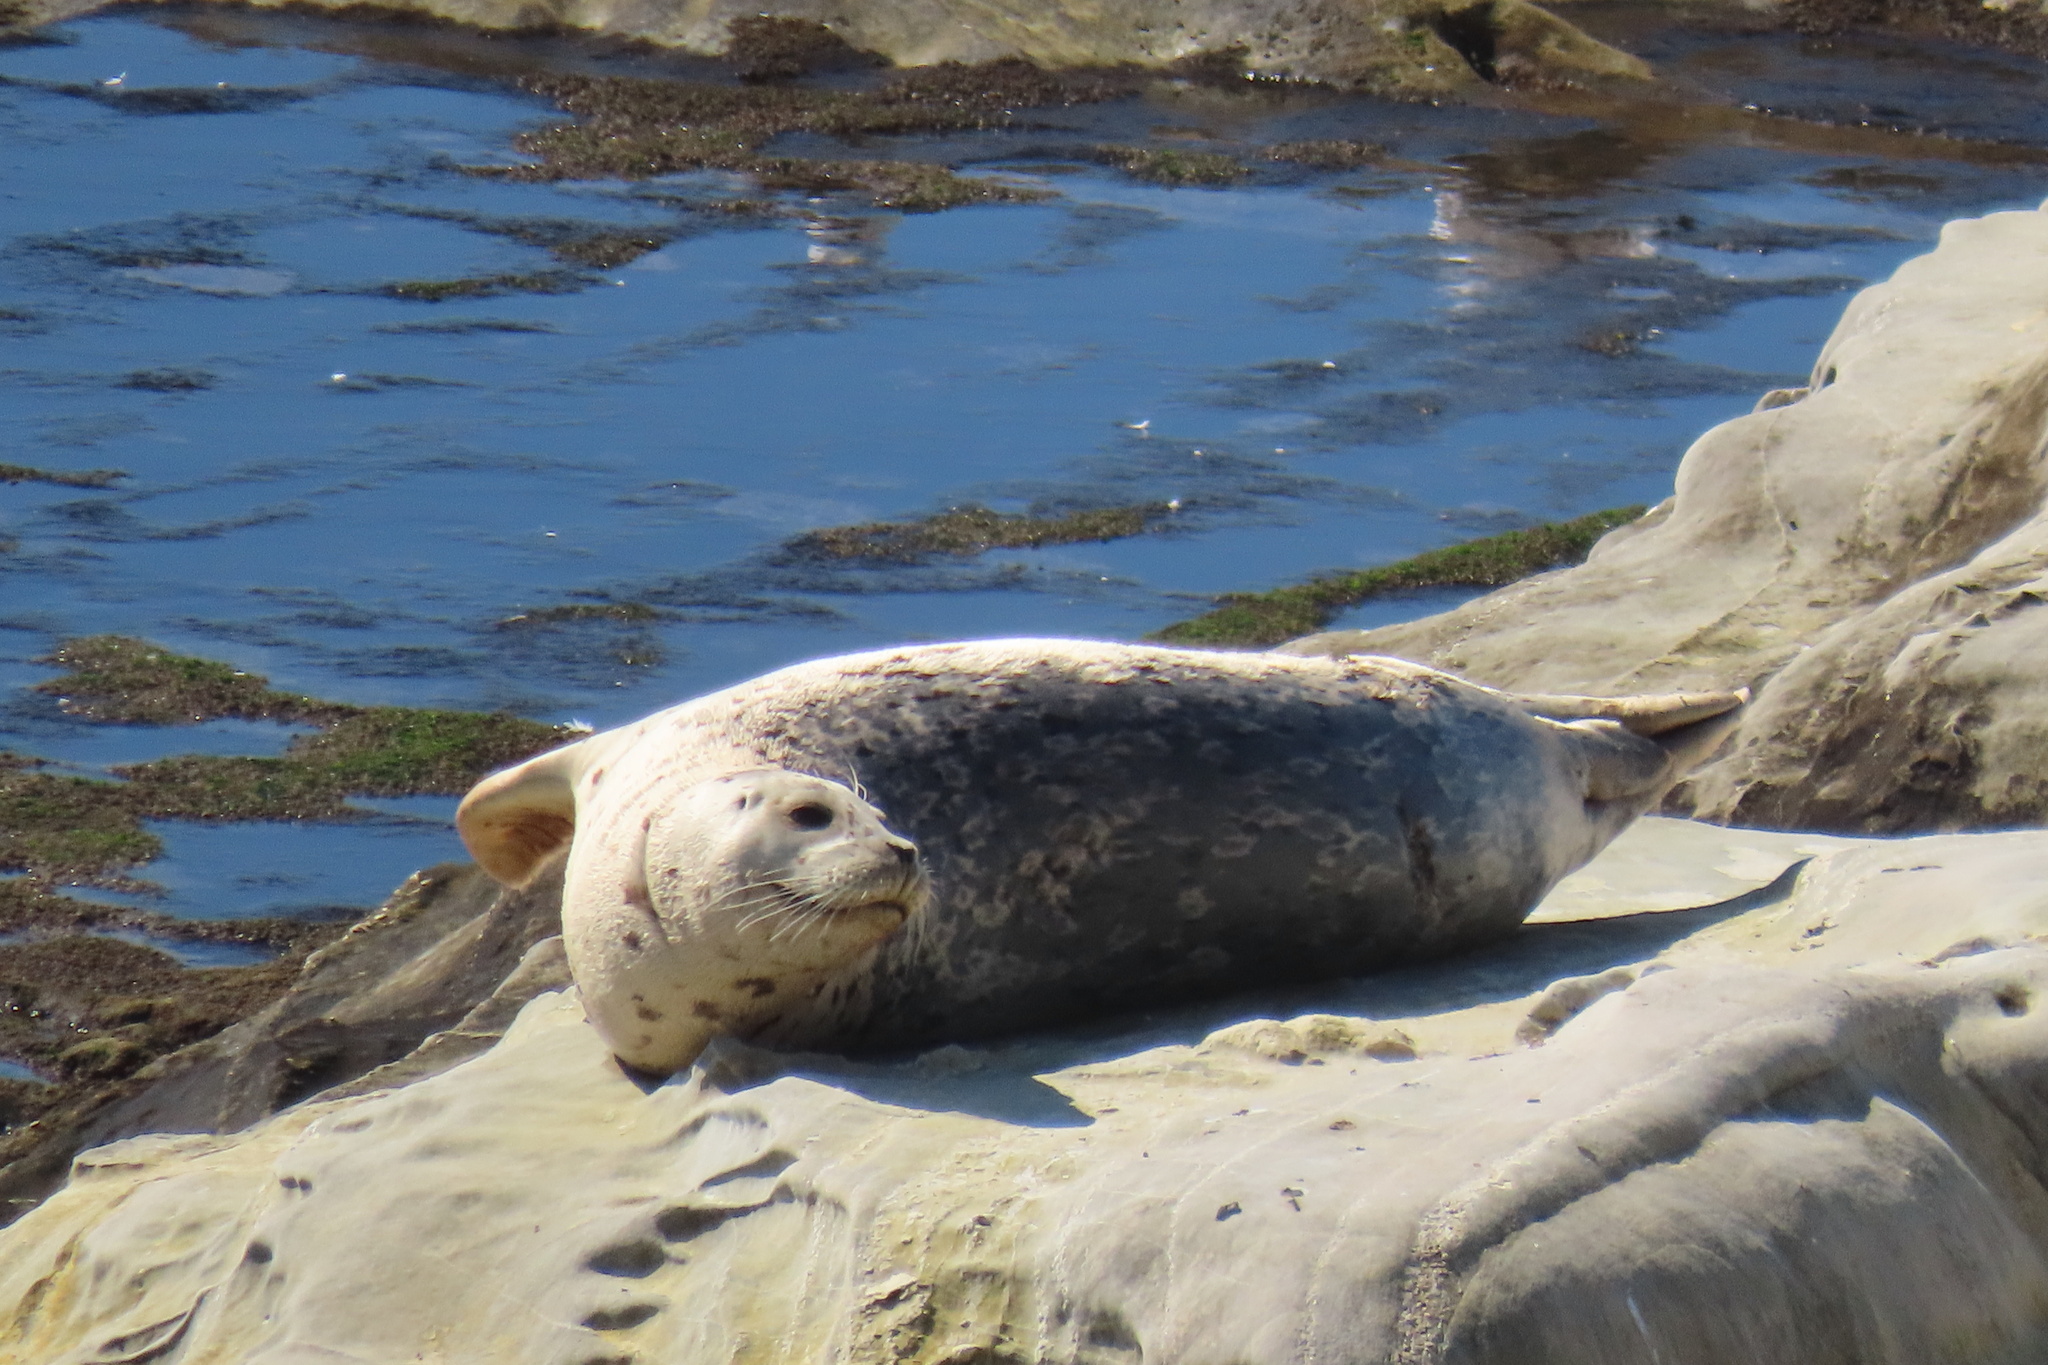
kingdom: Animalia
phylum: Chordata
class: Mammalia
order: Carnivora
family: Phocidae
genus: Phoca
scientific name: Phoca vitulina
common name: Harbor seal
